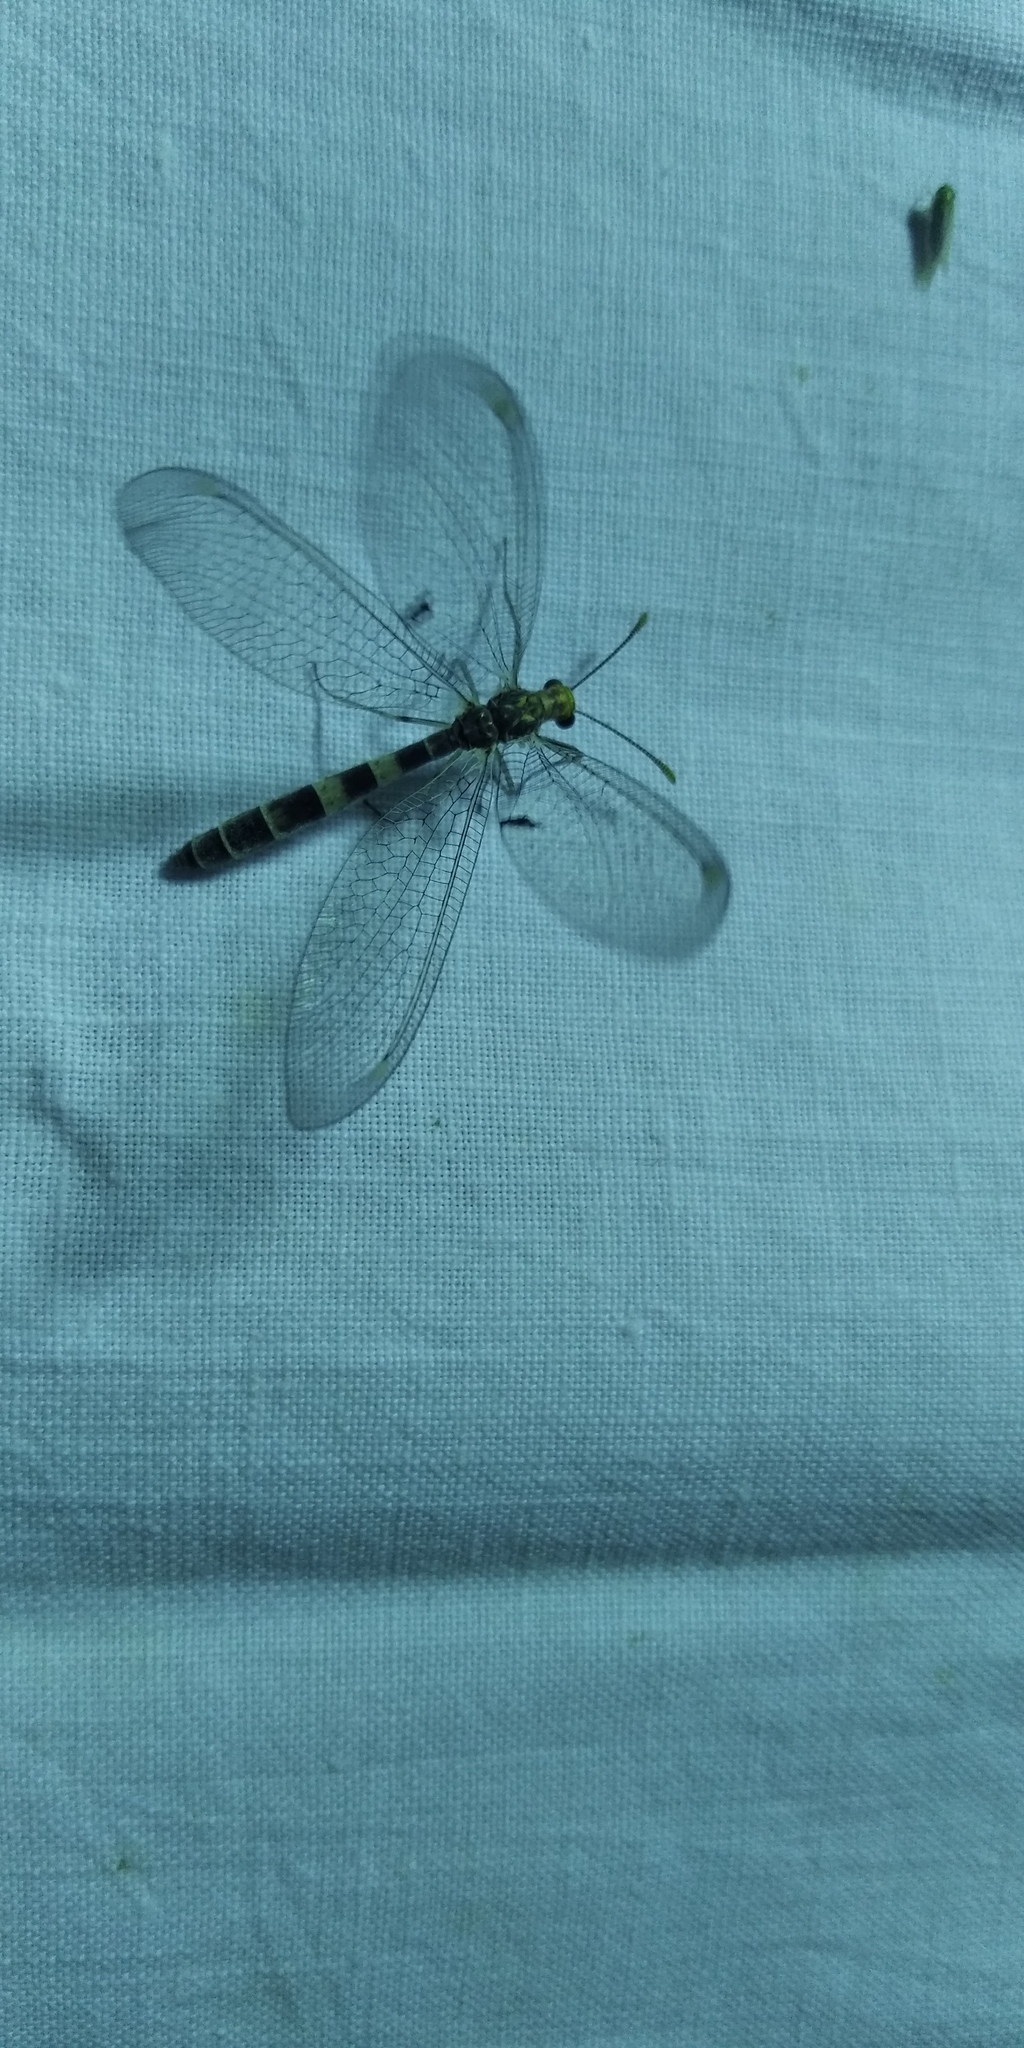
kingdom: Animalia
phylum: Arthropoda
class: Insecta
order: Neuroptera
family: Myrmeleontidae
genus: Megistopus
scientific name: Megistopus flavicornis
